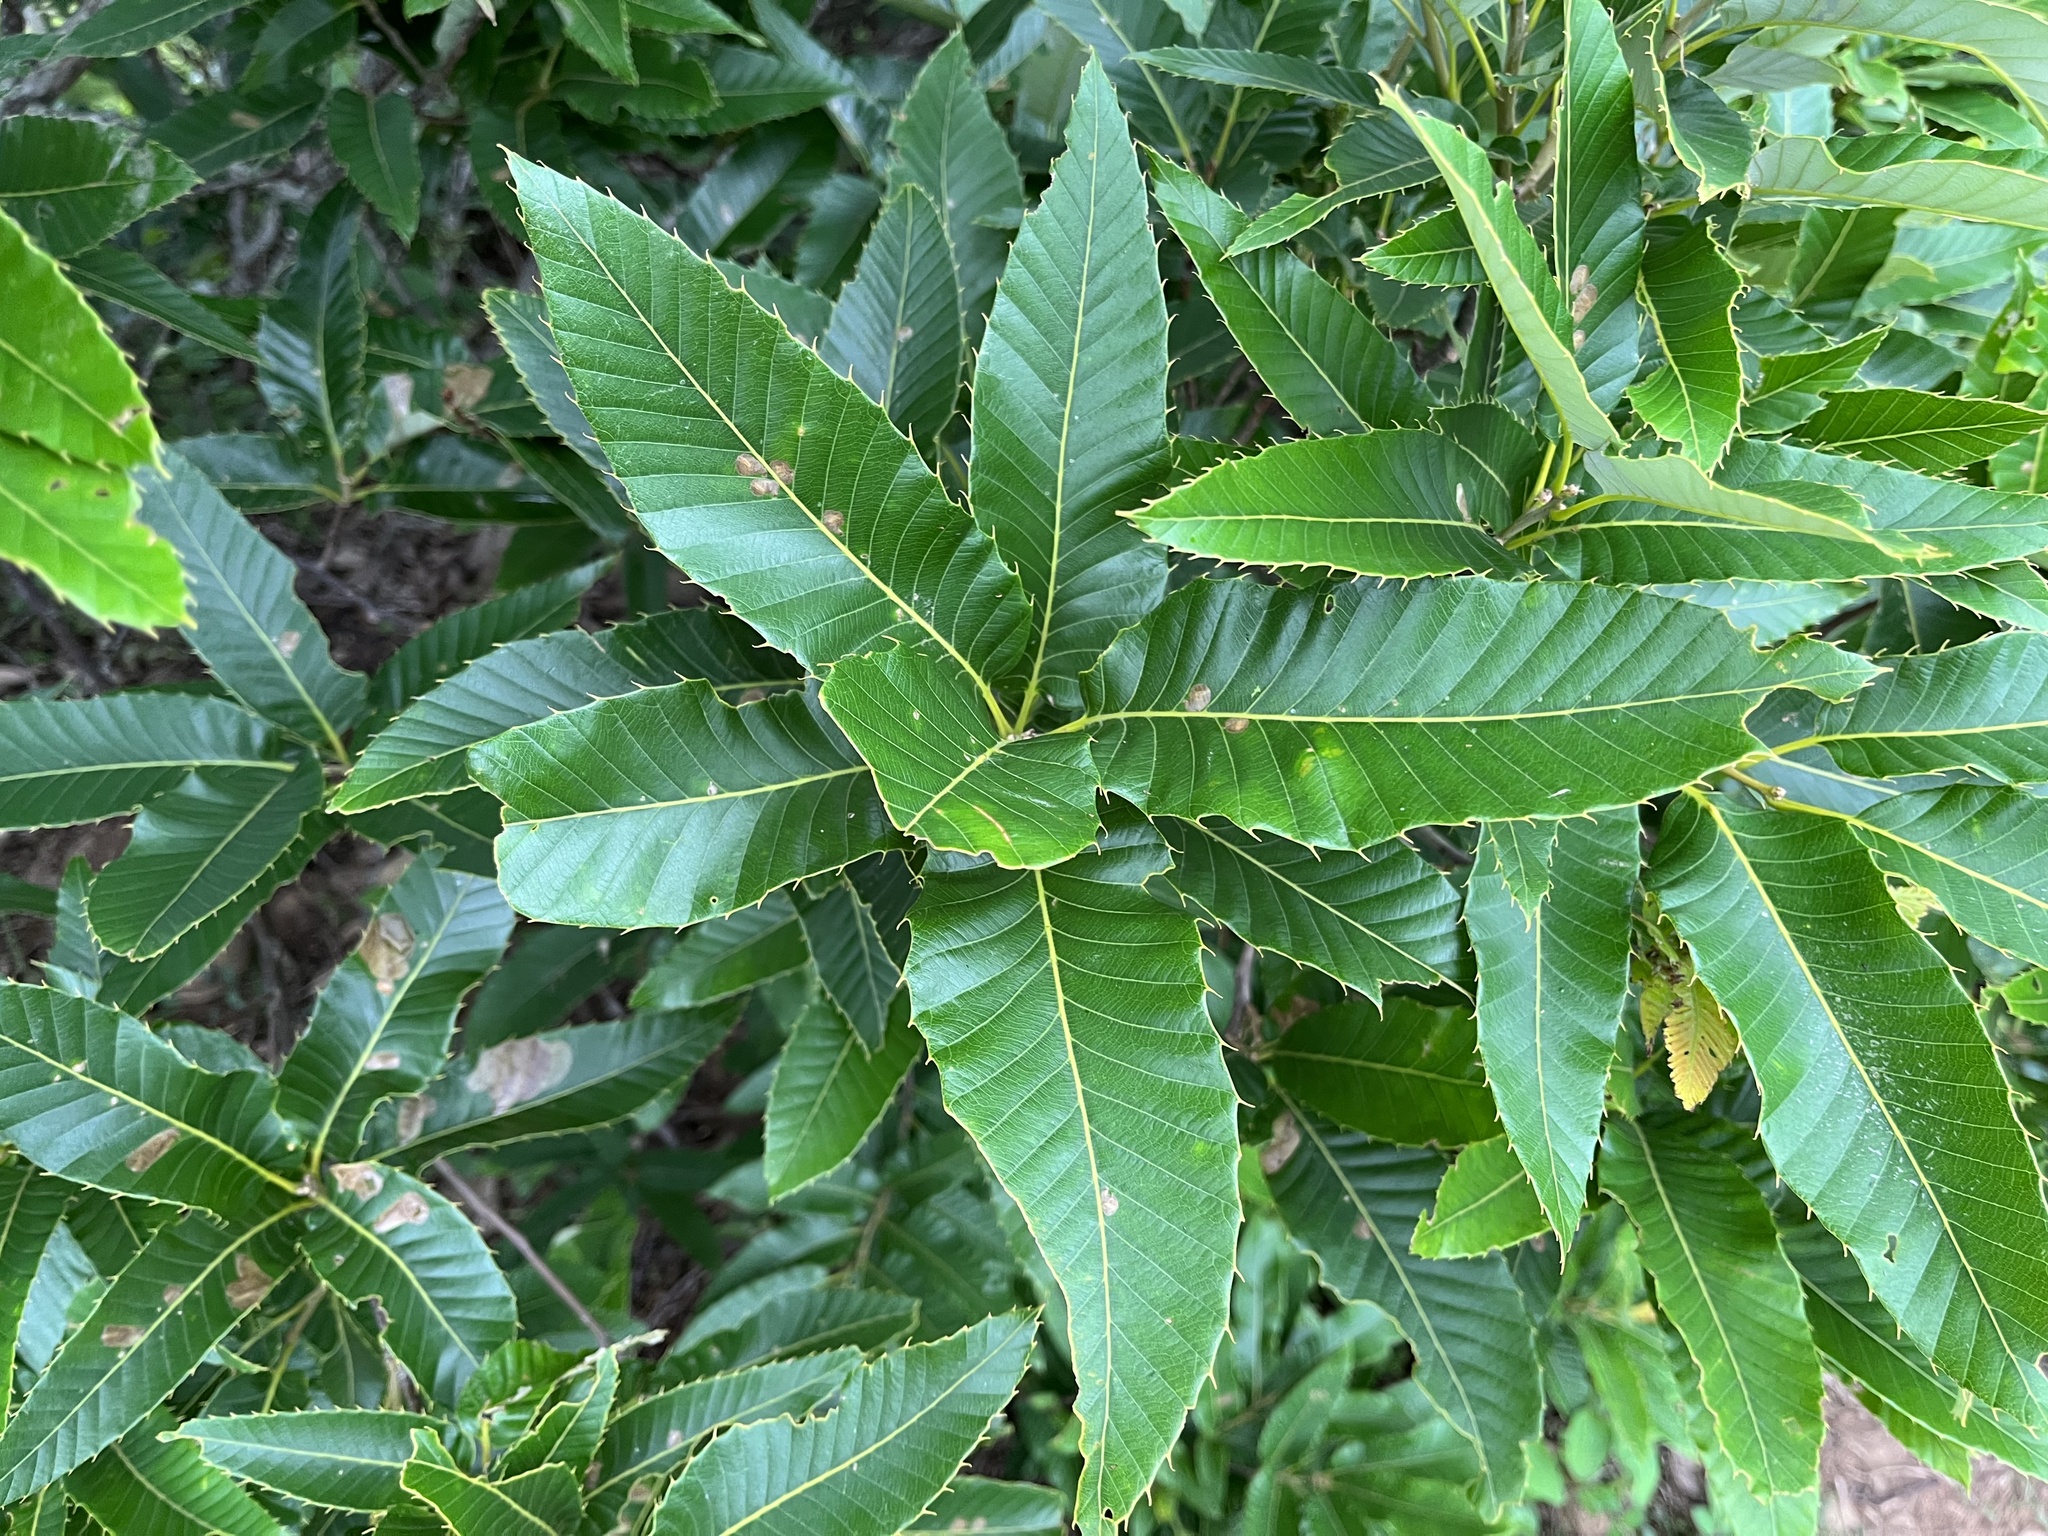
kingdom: Plantae
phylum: Tracheophyta
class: Magnoliopsida
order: Fagales
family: Fagaceae
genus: Quercus
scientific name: Quercus variabilis
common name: Chinese cork oak
